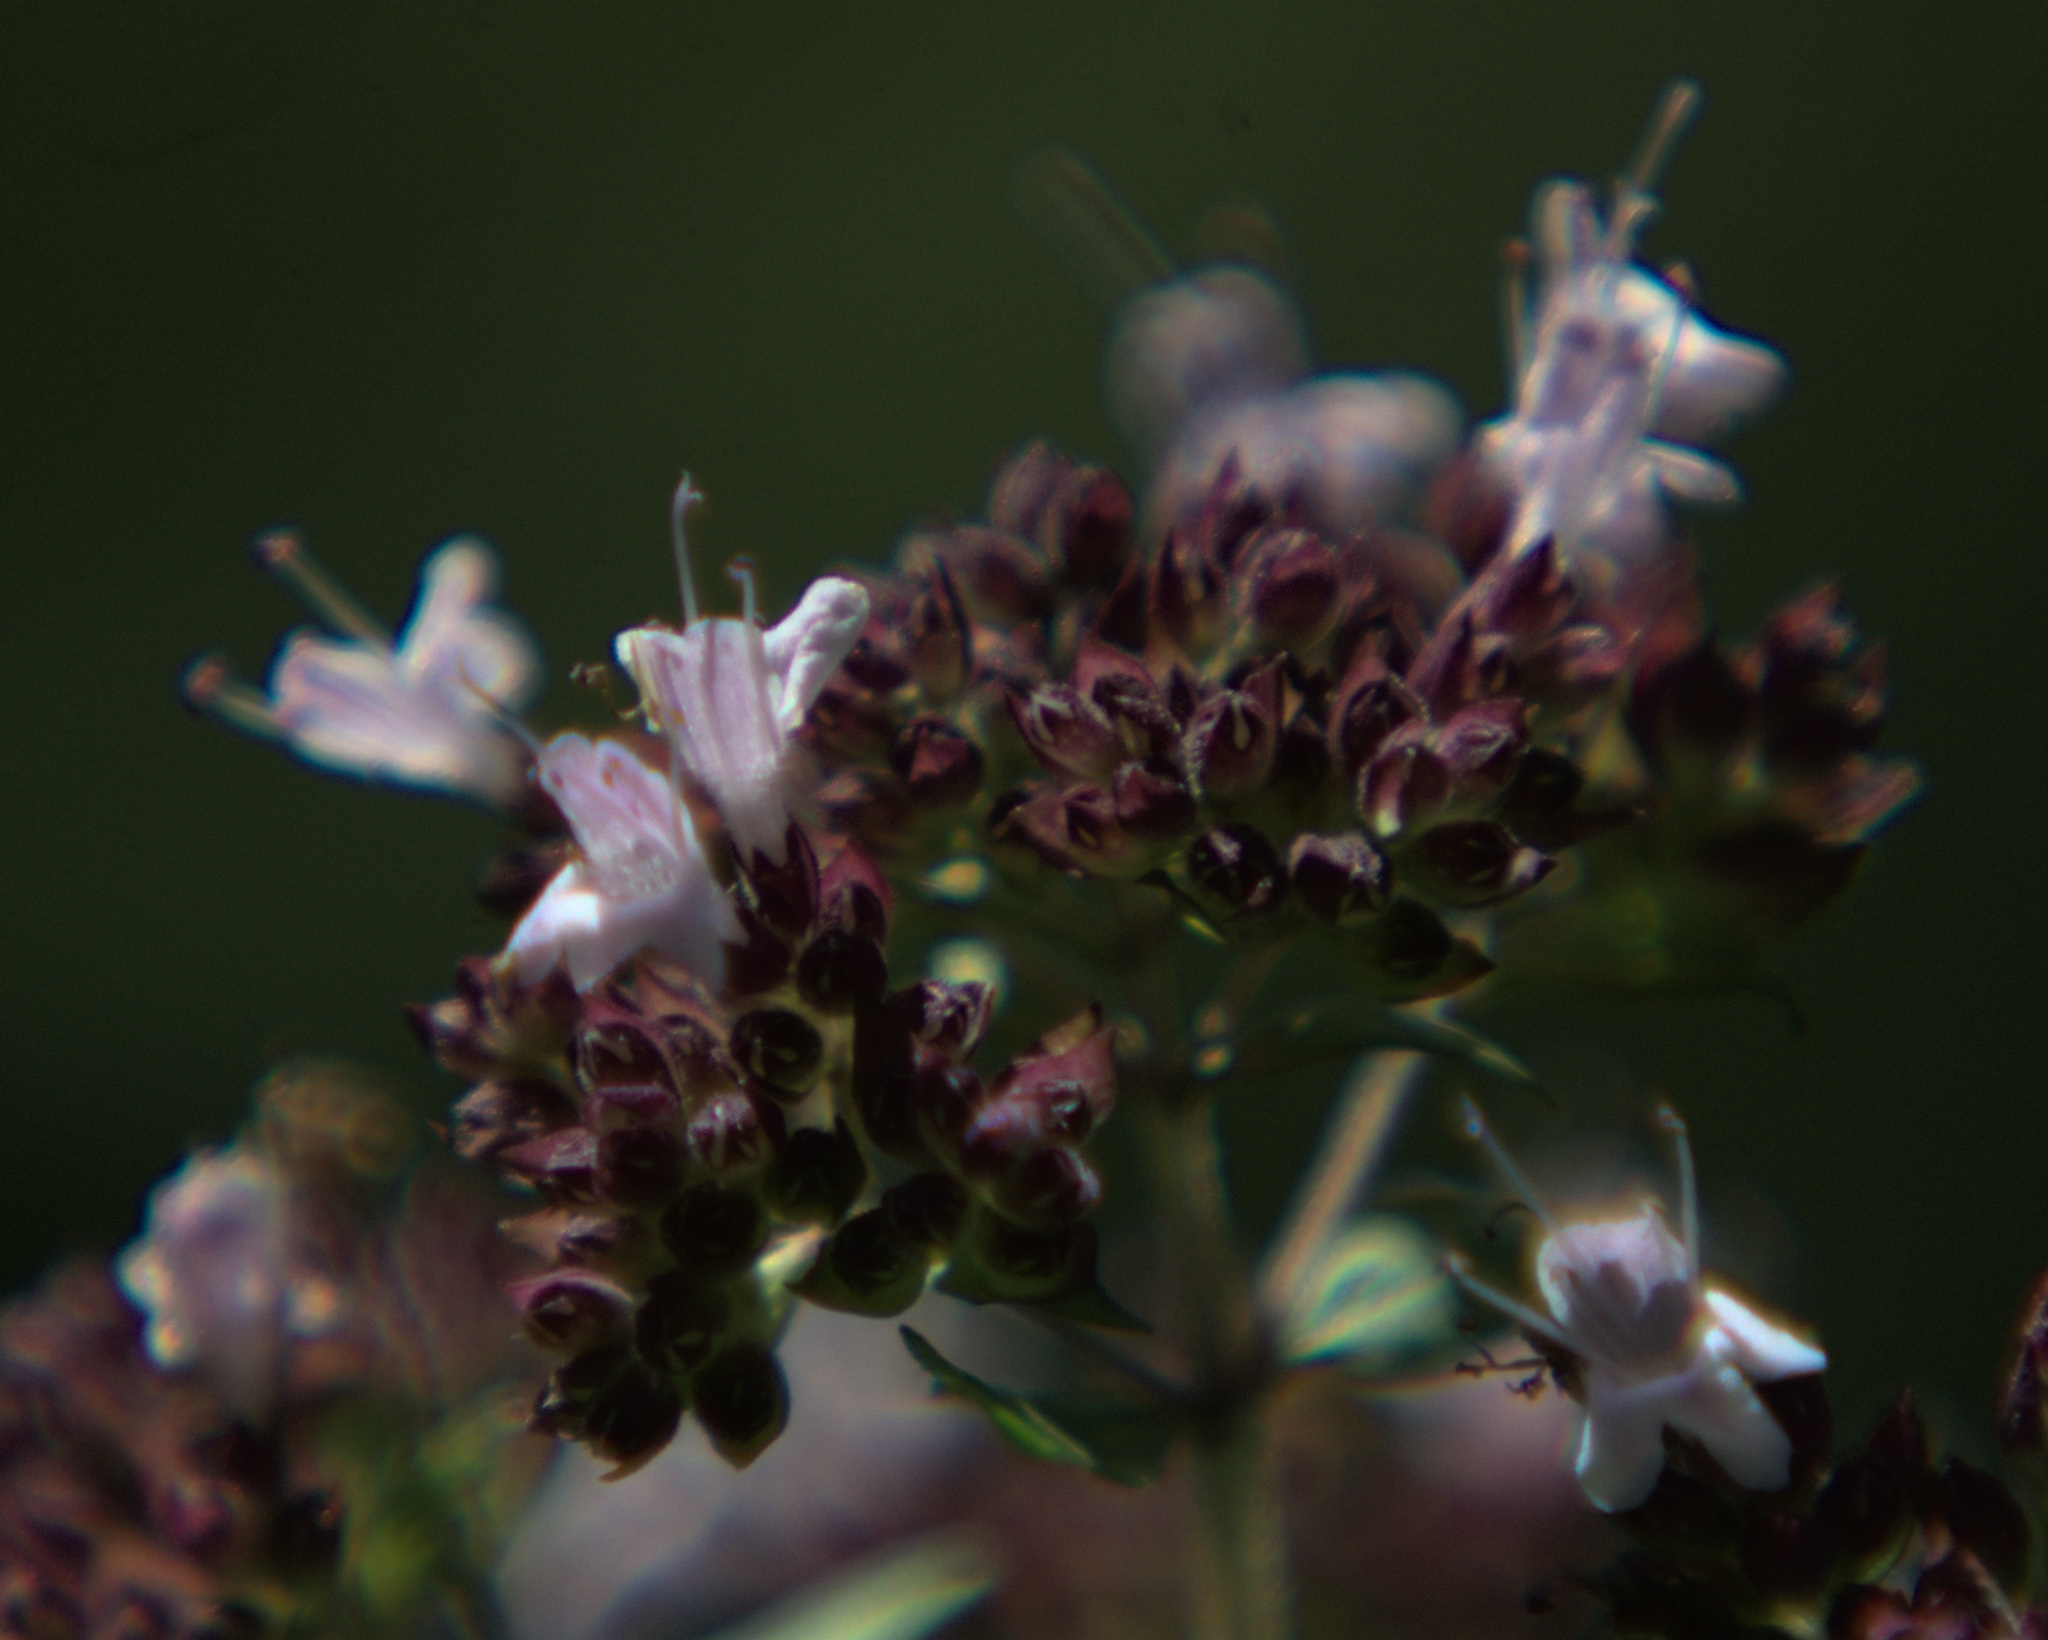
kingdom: Plantae
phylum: Tracheophyta
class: Magnoliopsida
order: Lamiales
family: Lamiaceae
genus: Origanum
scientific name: Origanum vulgare
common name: Wild marjoram
